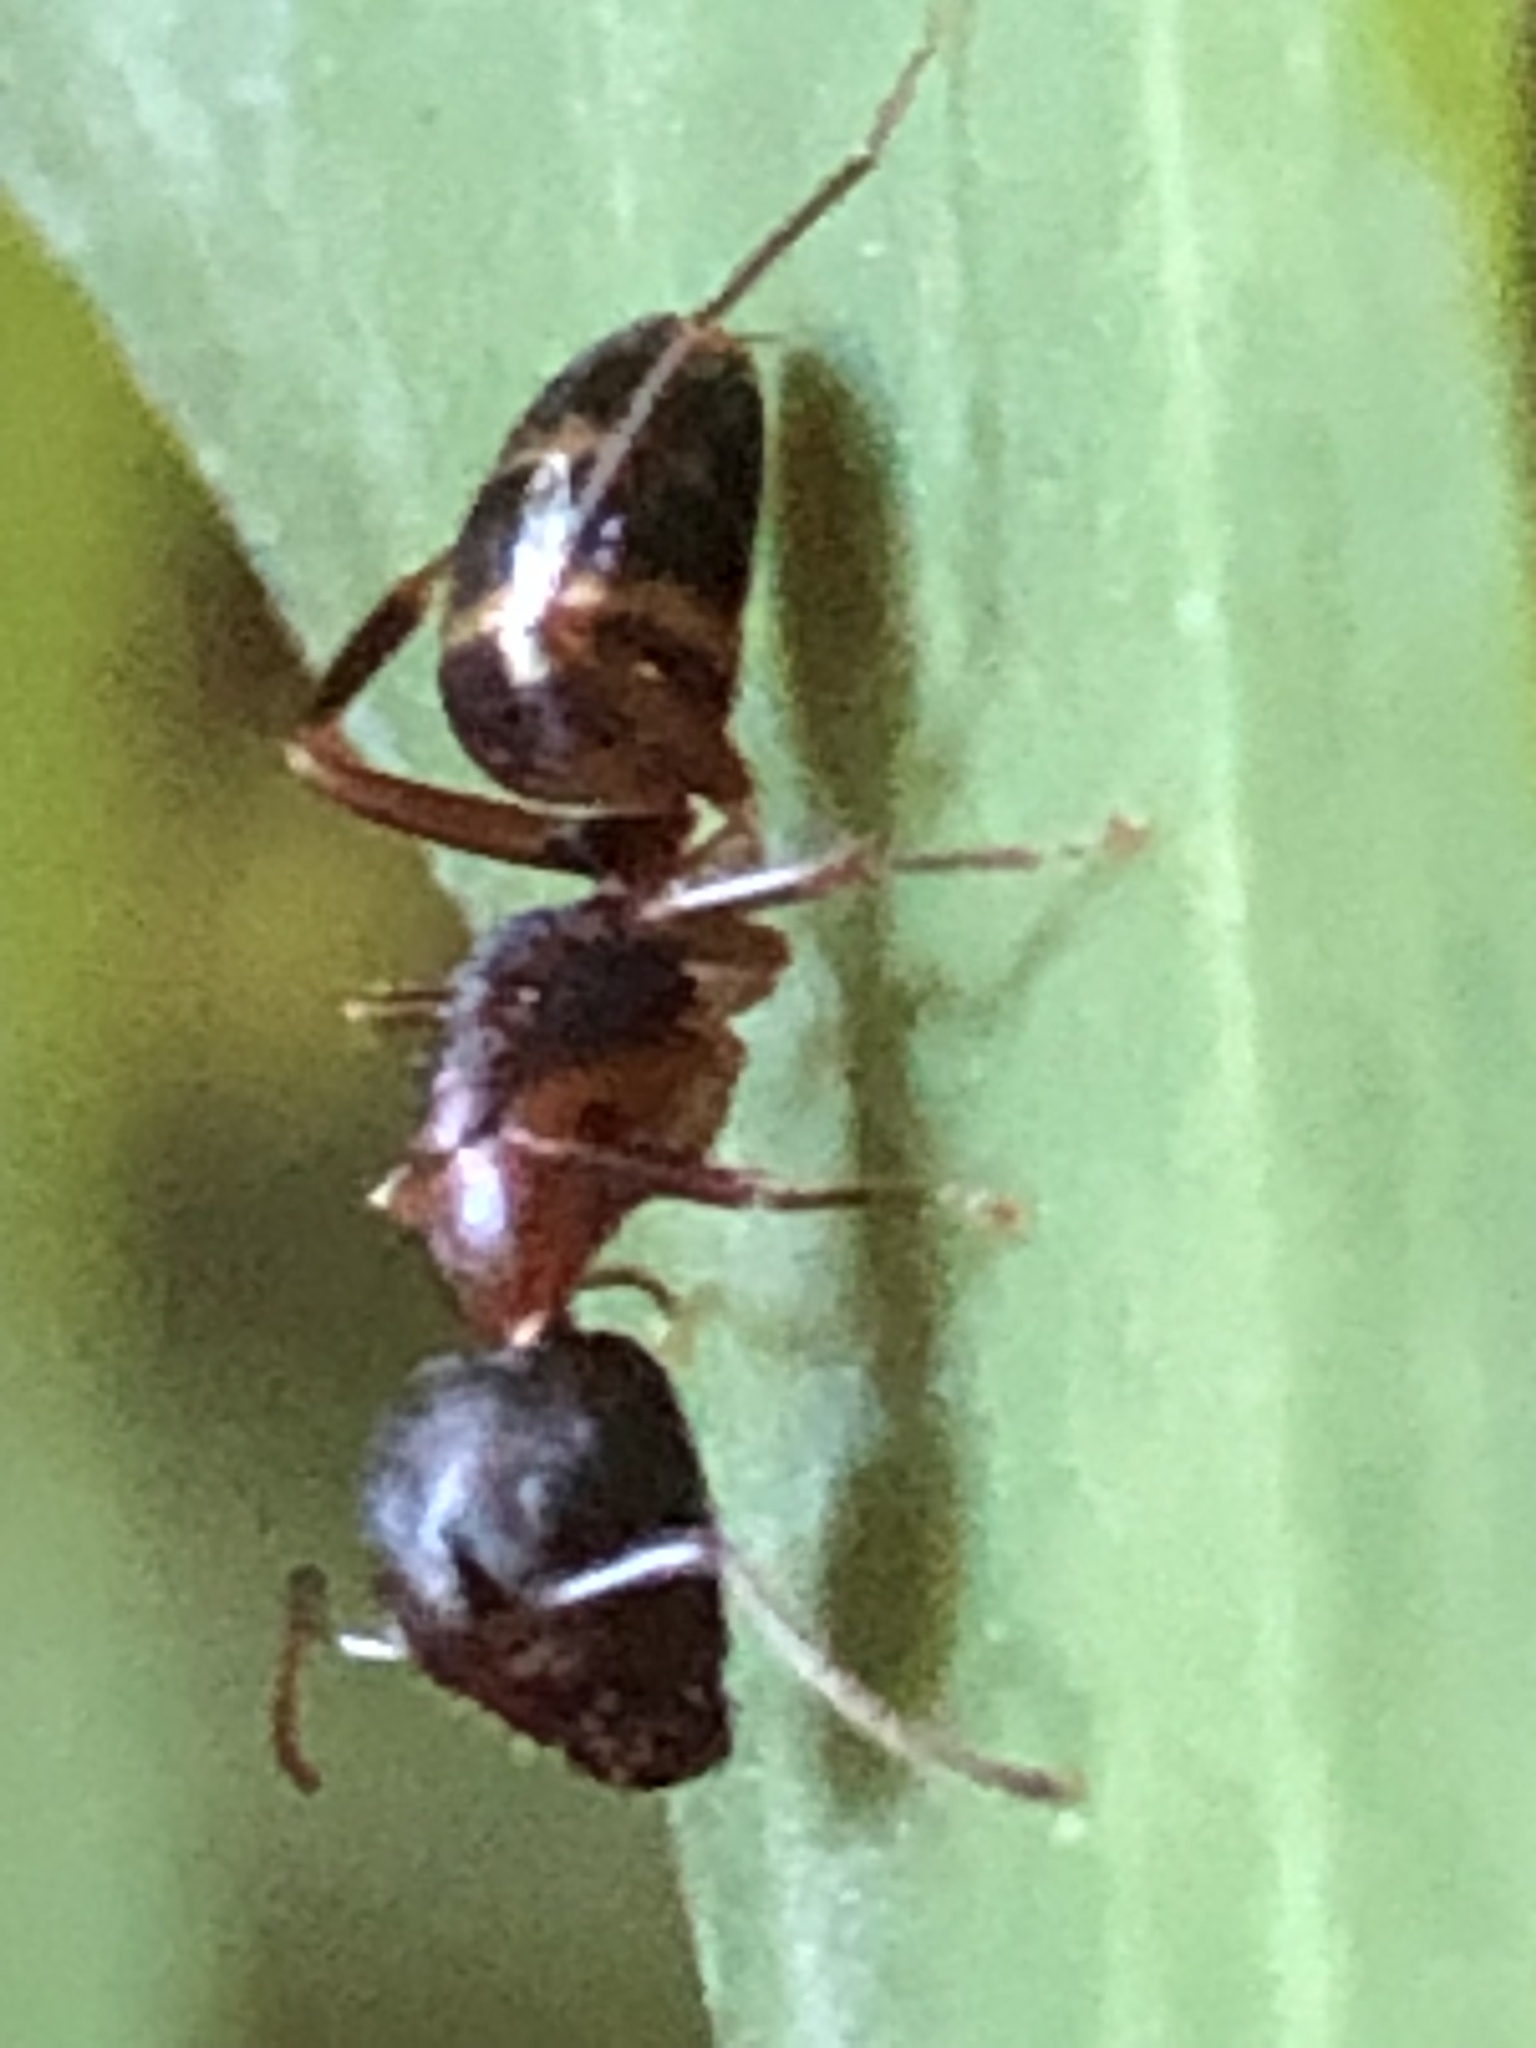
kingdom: Animalia
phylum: Arthropoda
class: Insecta
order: Hymenoptera
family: Formicidae
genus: Camponotus
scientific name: Camponotus subbarbatus
